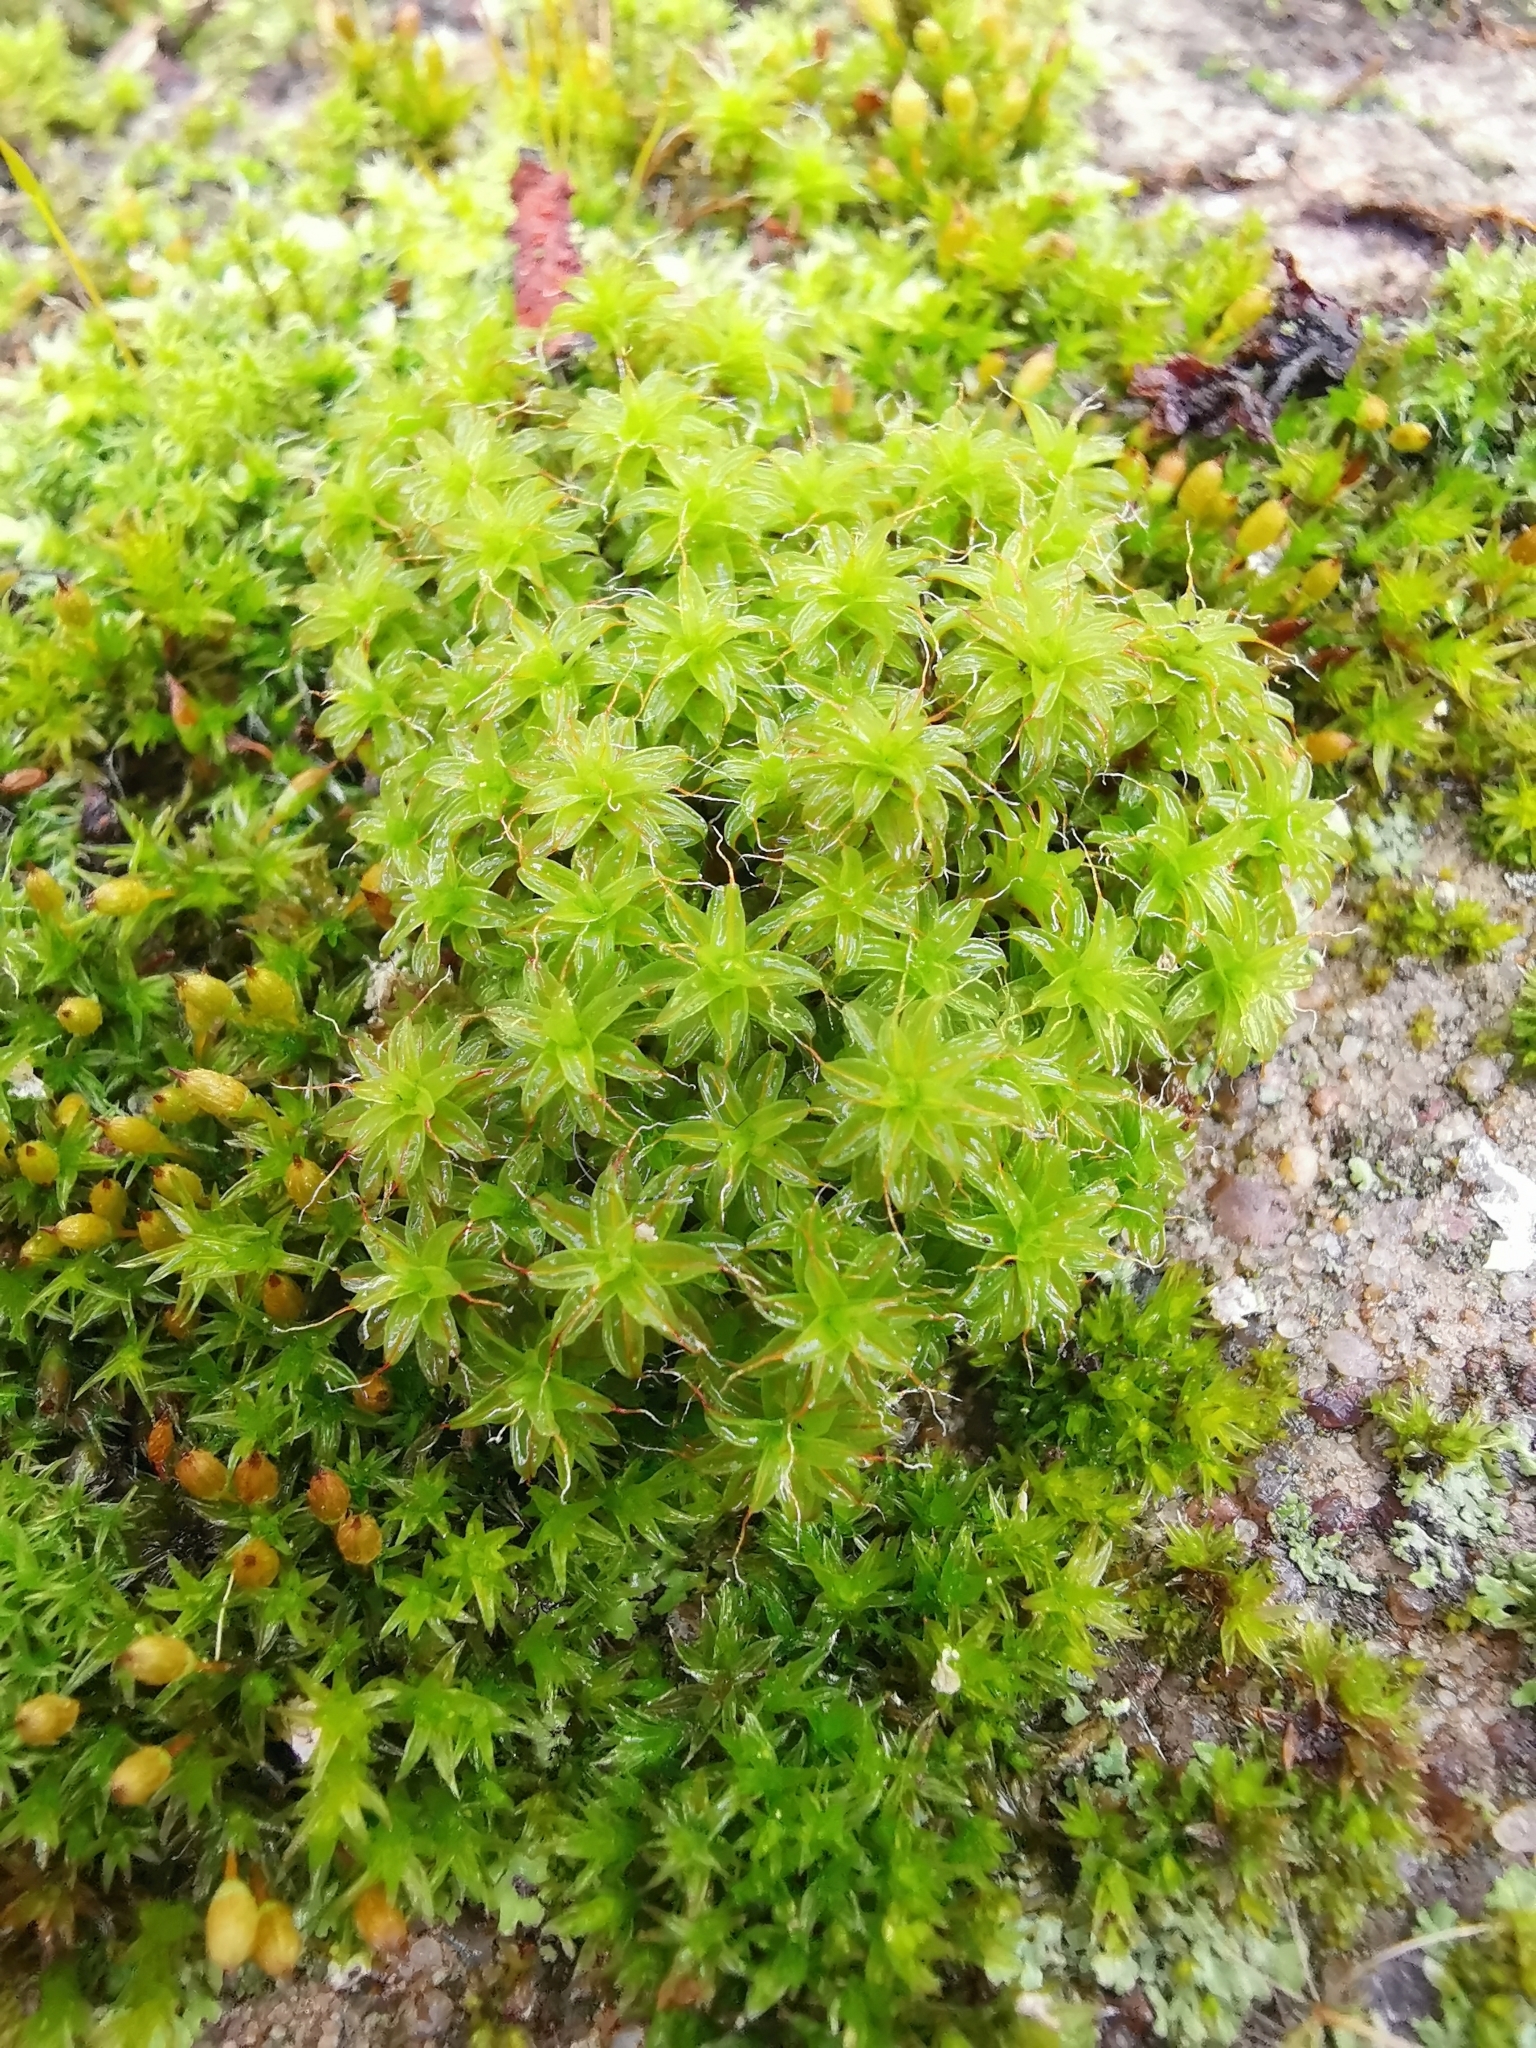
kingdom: Plantae
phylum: Bryophyta
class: Bryopsida
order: Pottiales
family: Pottiaceae
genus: Syntrichia
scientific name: Syntrichia ruralis
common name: Sidewalk screw moss
